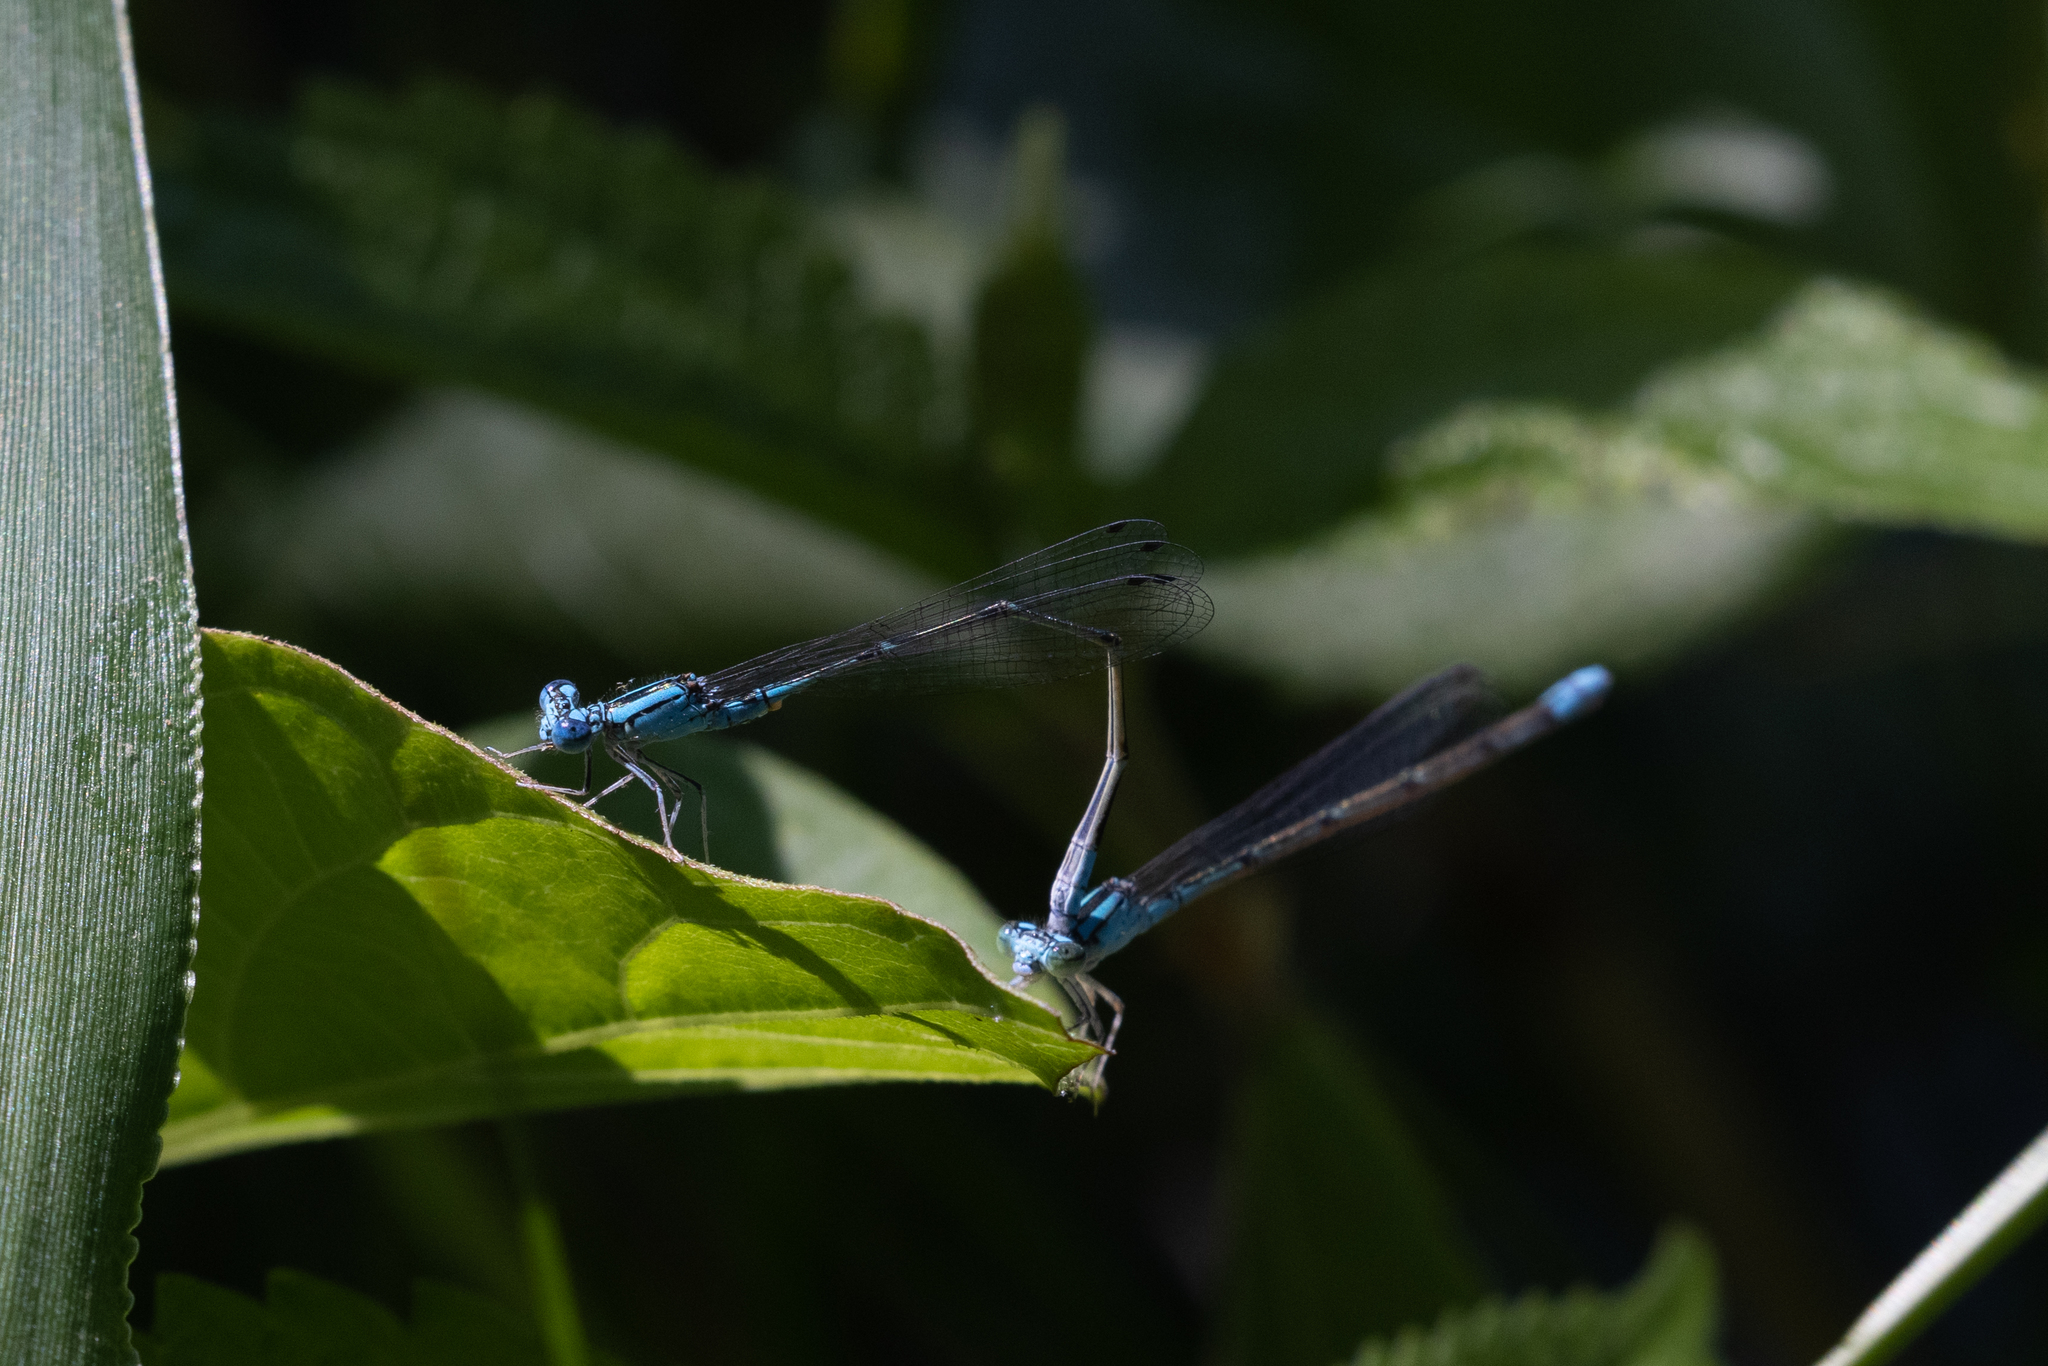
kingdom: Animalia
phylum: Arthropoda
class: Insecta
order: Odonata
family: Coenagrionidae
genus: Enallagma
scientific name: Enallagma traviatum
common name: Slender bluet
